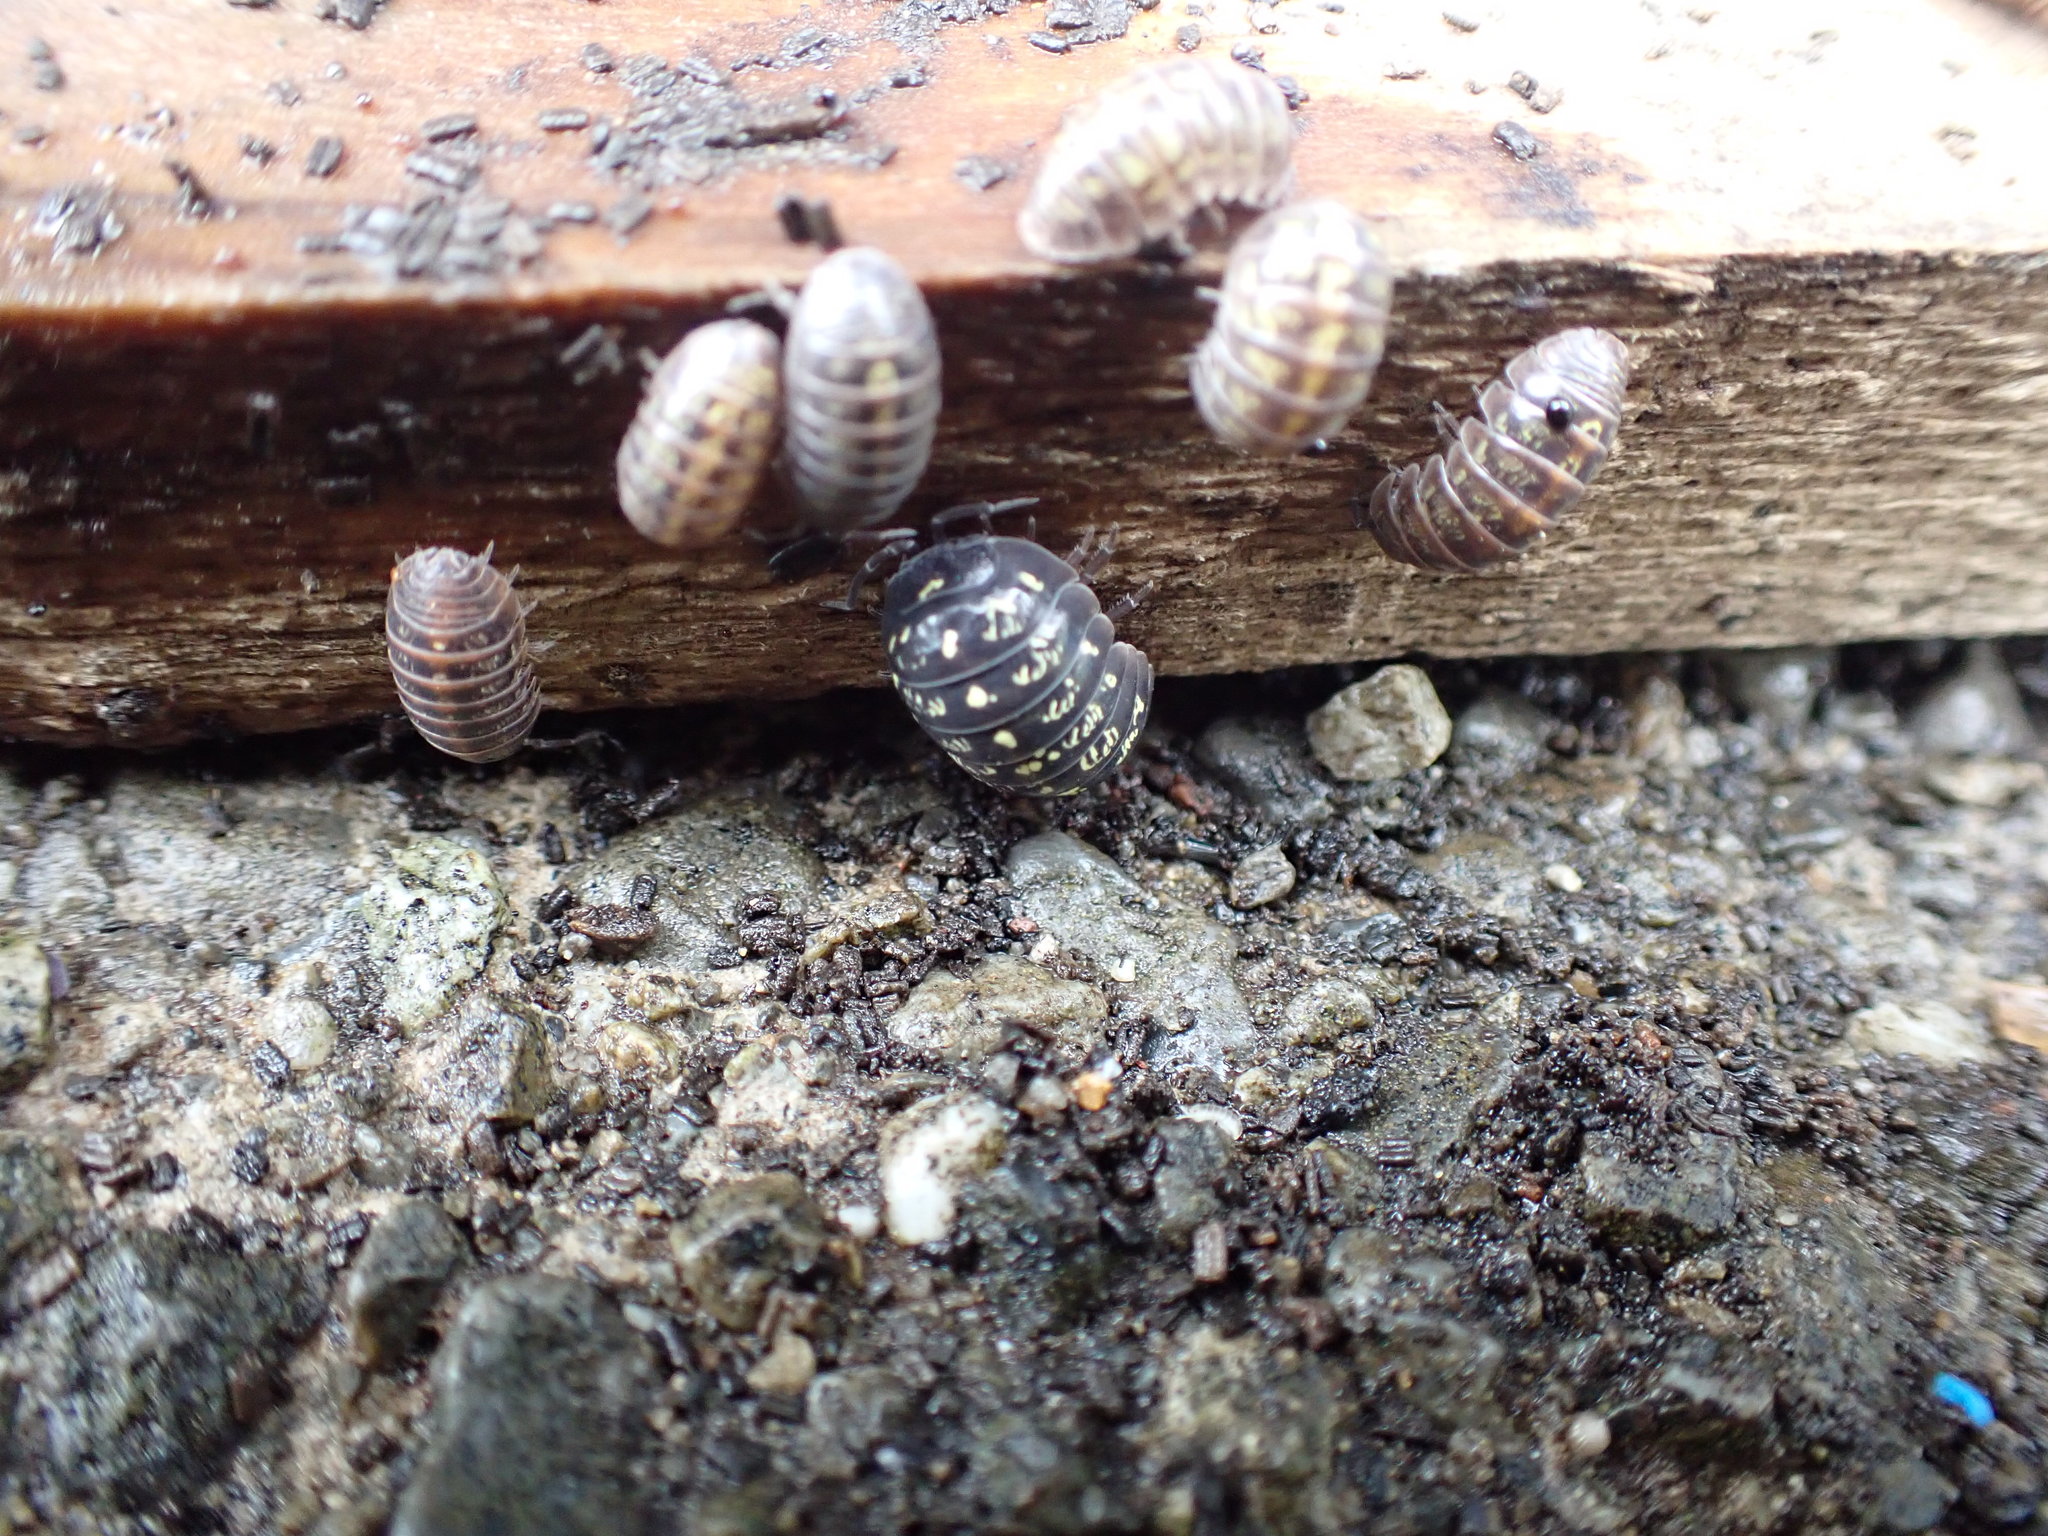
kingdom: Animalia
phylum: Arthropoda
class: Malacostraca
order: Isopoda
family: Armadillidiidae
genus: Armadillidium
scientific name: Armadillidium vulgare
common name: Common pill woodlouse
